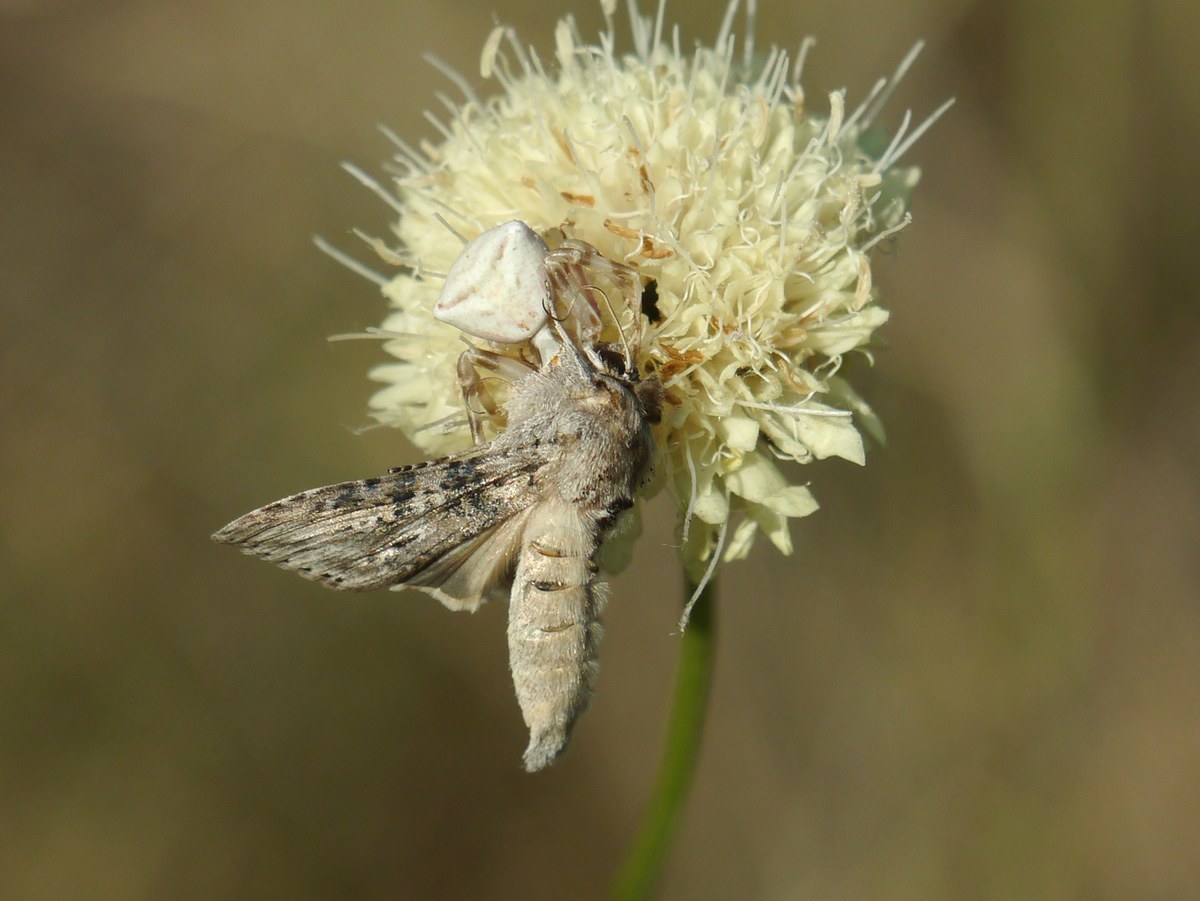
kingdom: Animalia
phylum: Arthropoda
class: Insecta
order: Lepidoptera
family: Noctuidae
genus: Cucullia
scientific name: Cucullia absinthii
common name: Wormwood
